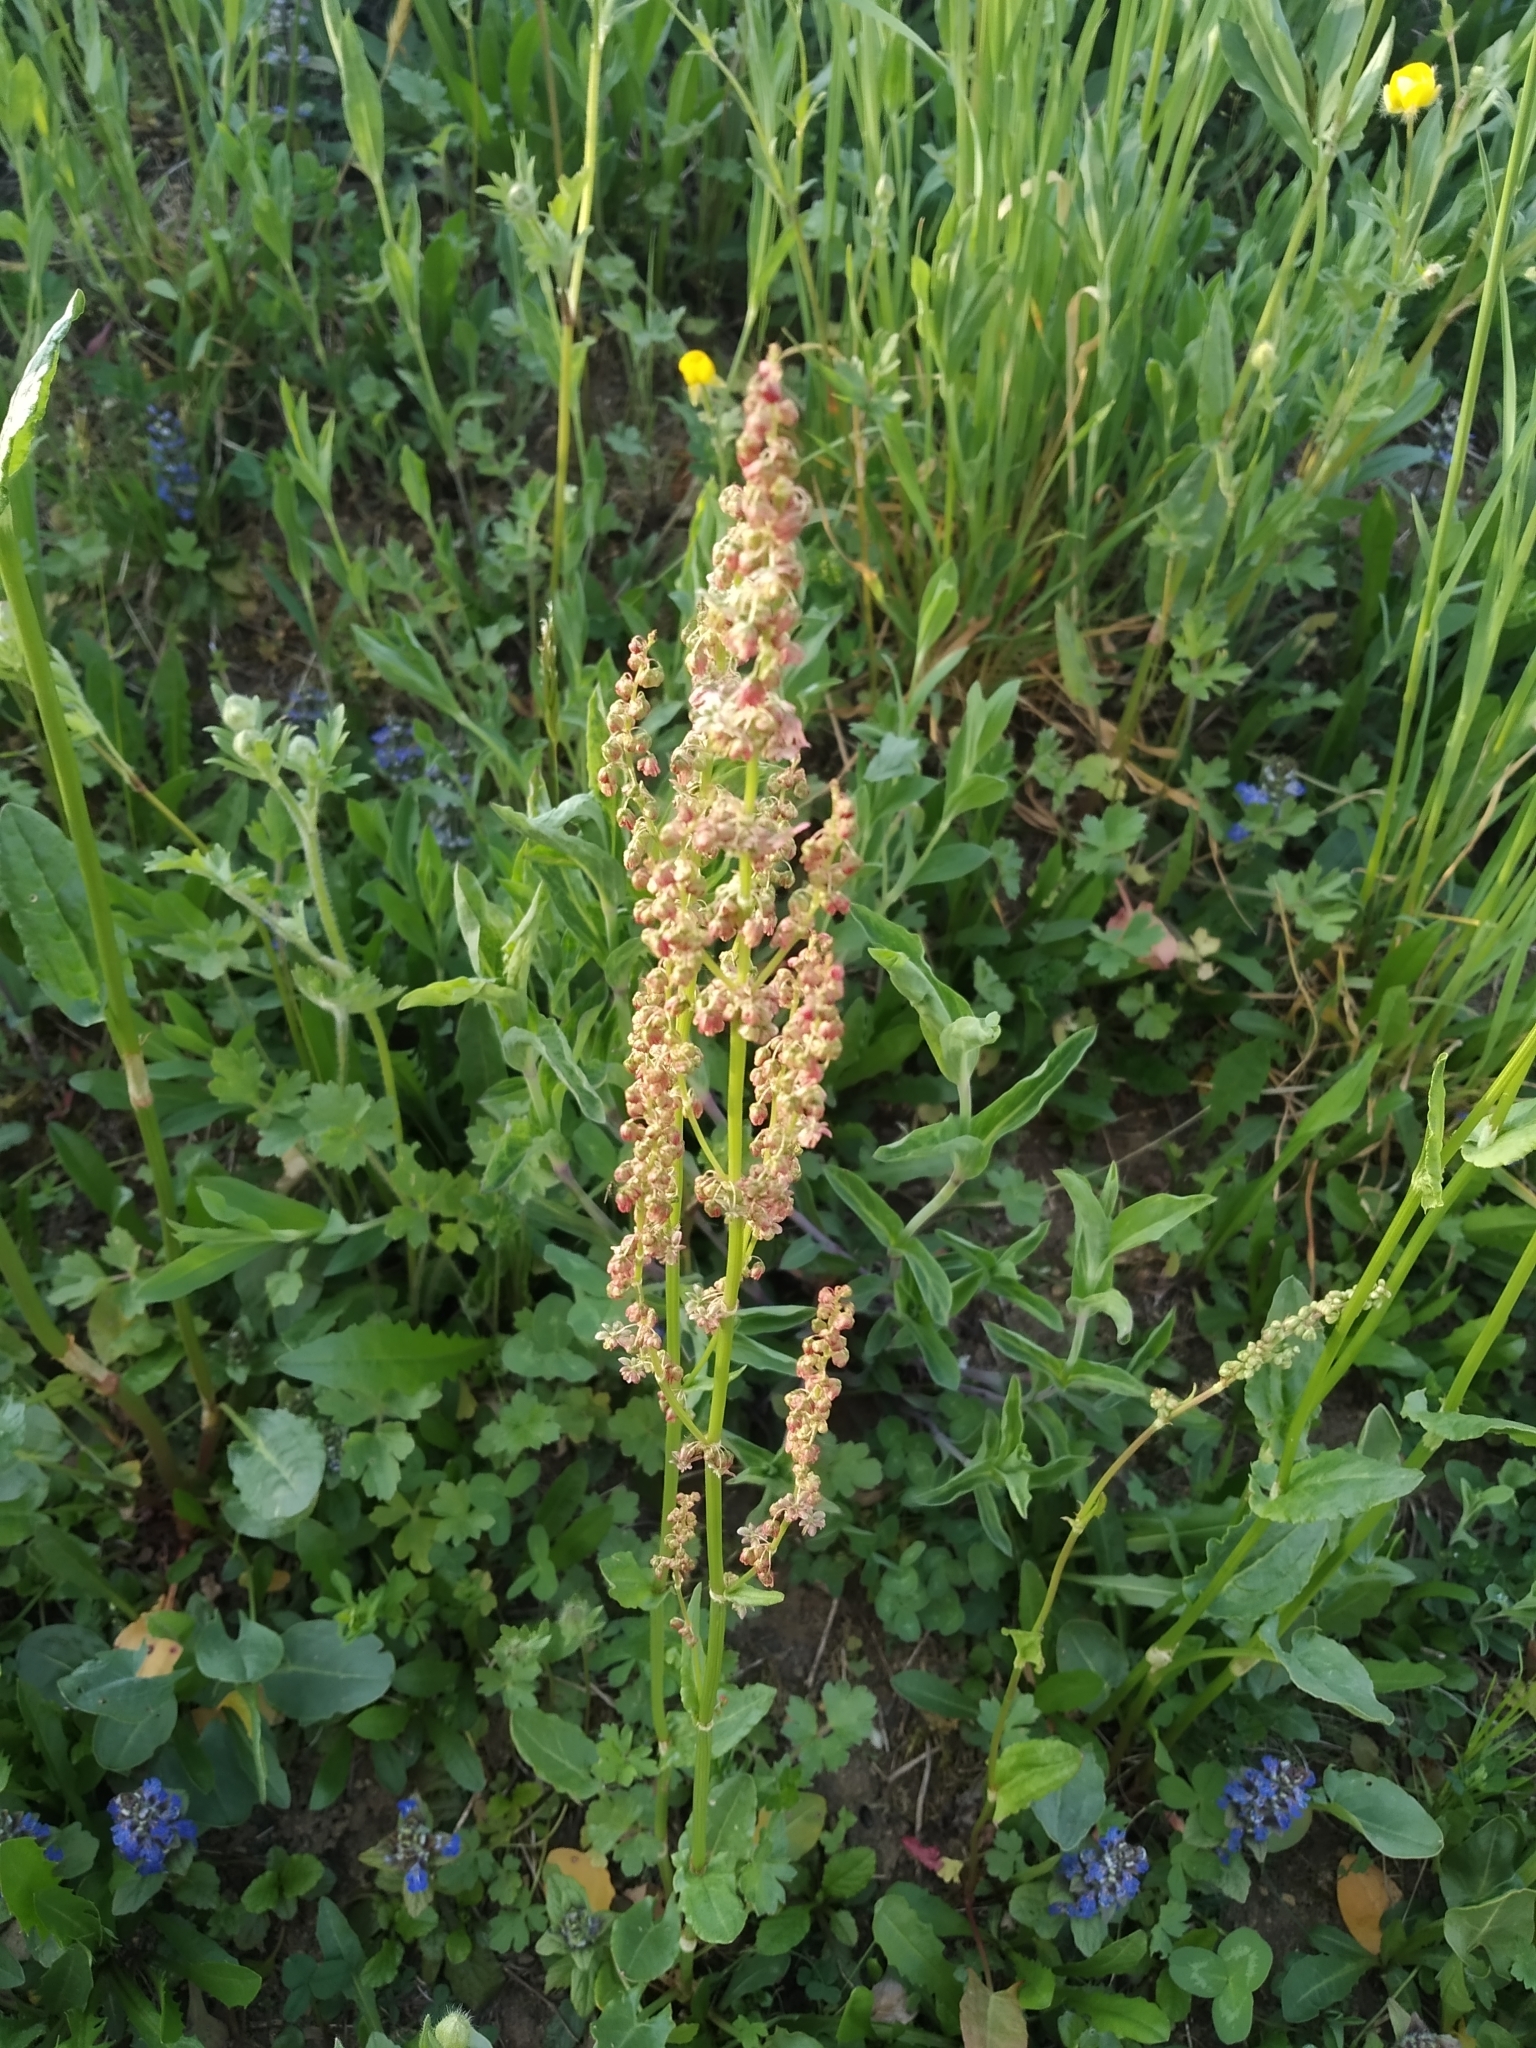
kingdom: Plantae
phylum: Tracheophyta
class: Magnoliopsida
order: Caryophyllales
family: Polygonaceae
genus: Rumex
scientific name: Rumex acetosa
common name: Garden sorrel
